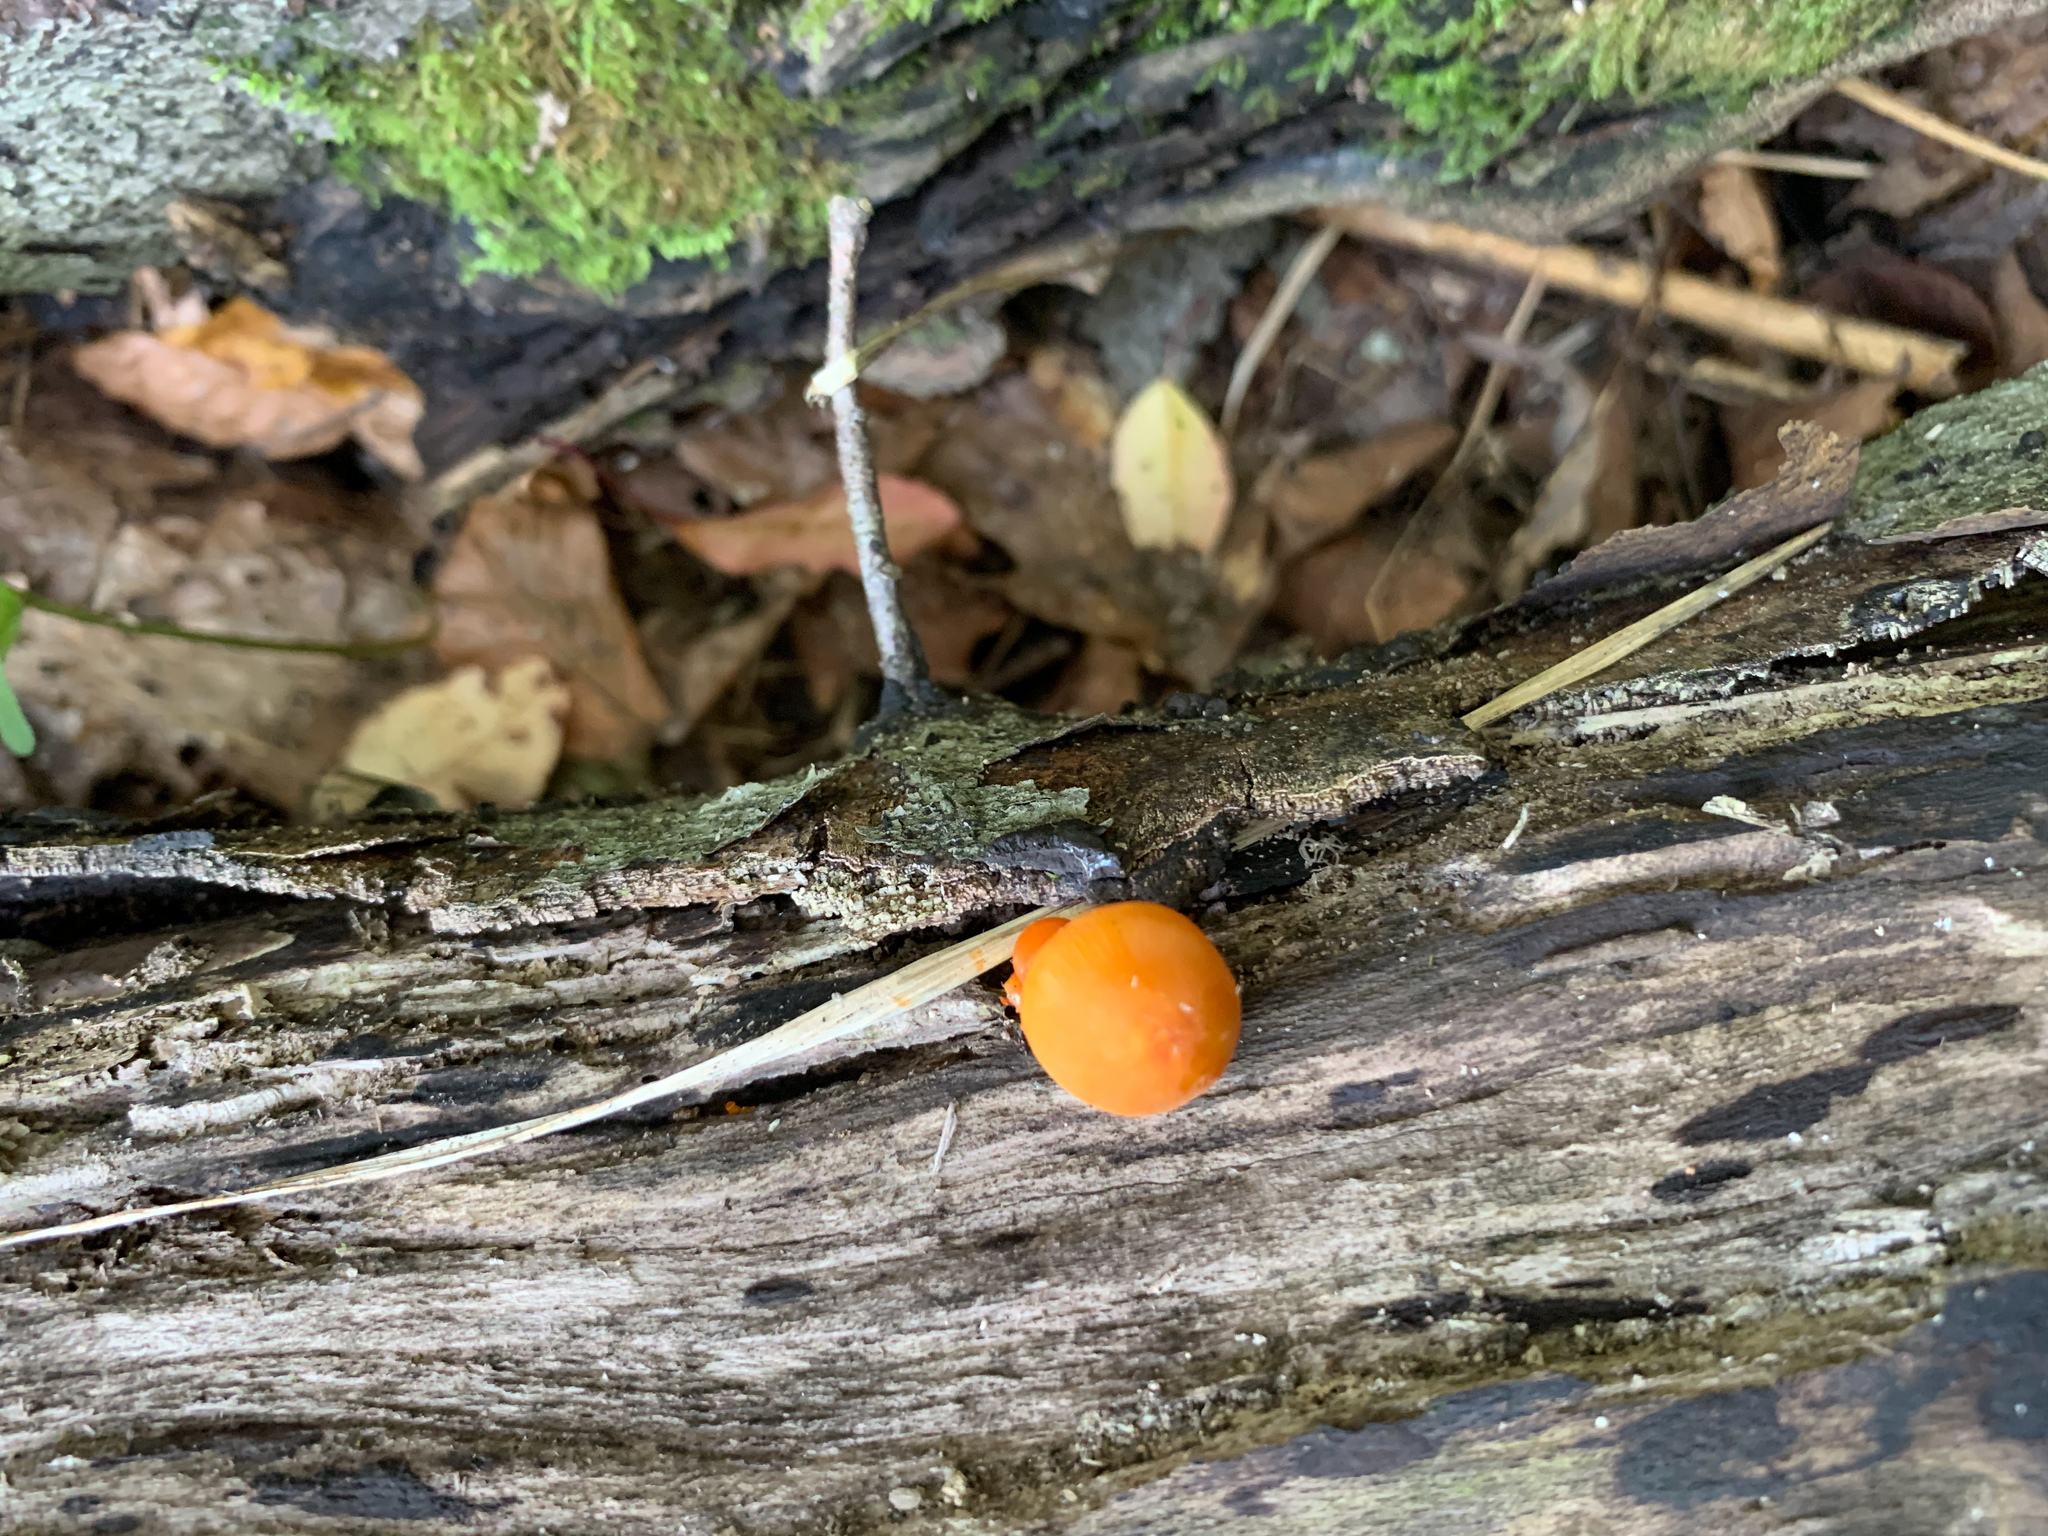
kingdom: Fungi
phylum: Basidiomycota
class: Agaricomycetes
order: Agaricales
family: Mycenaceae
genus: Mycena
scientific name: Mycena leaiana
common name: Orange mycena
